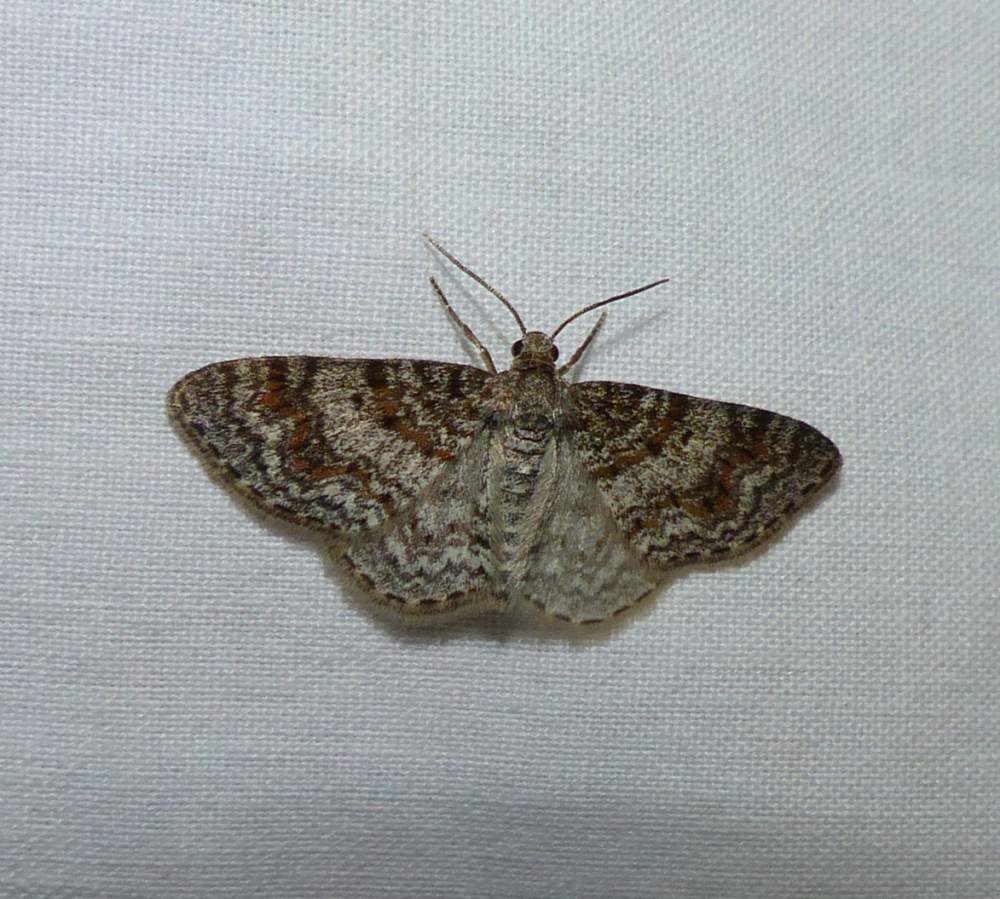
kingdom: Animalia
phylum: Arthropoda
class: Insecta
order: Lepidoptera
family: Geometridae
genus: Hydrelia
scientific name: Hydrelia inornata
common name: Unadorned carpet moth
